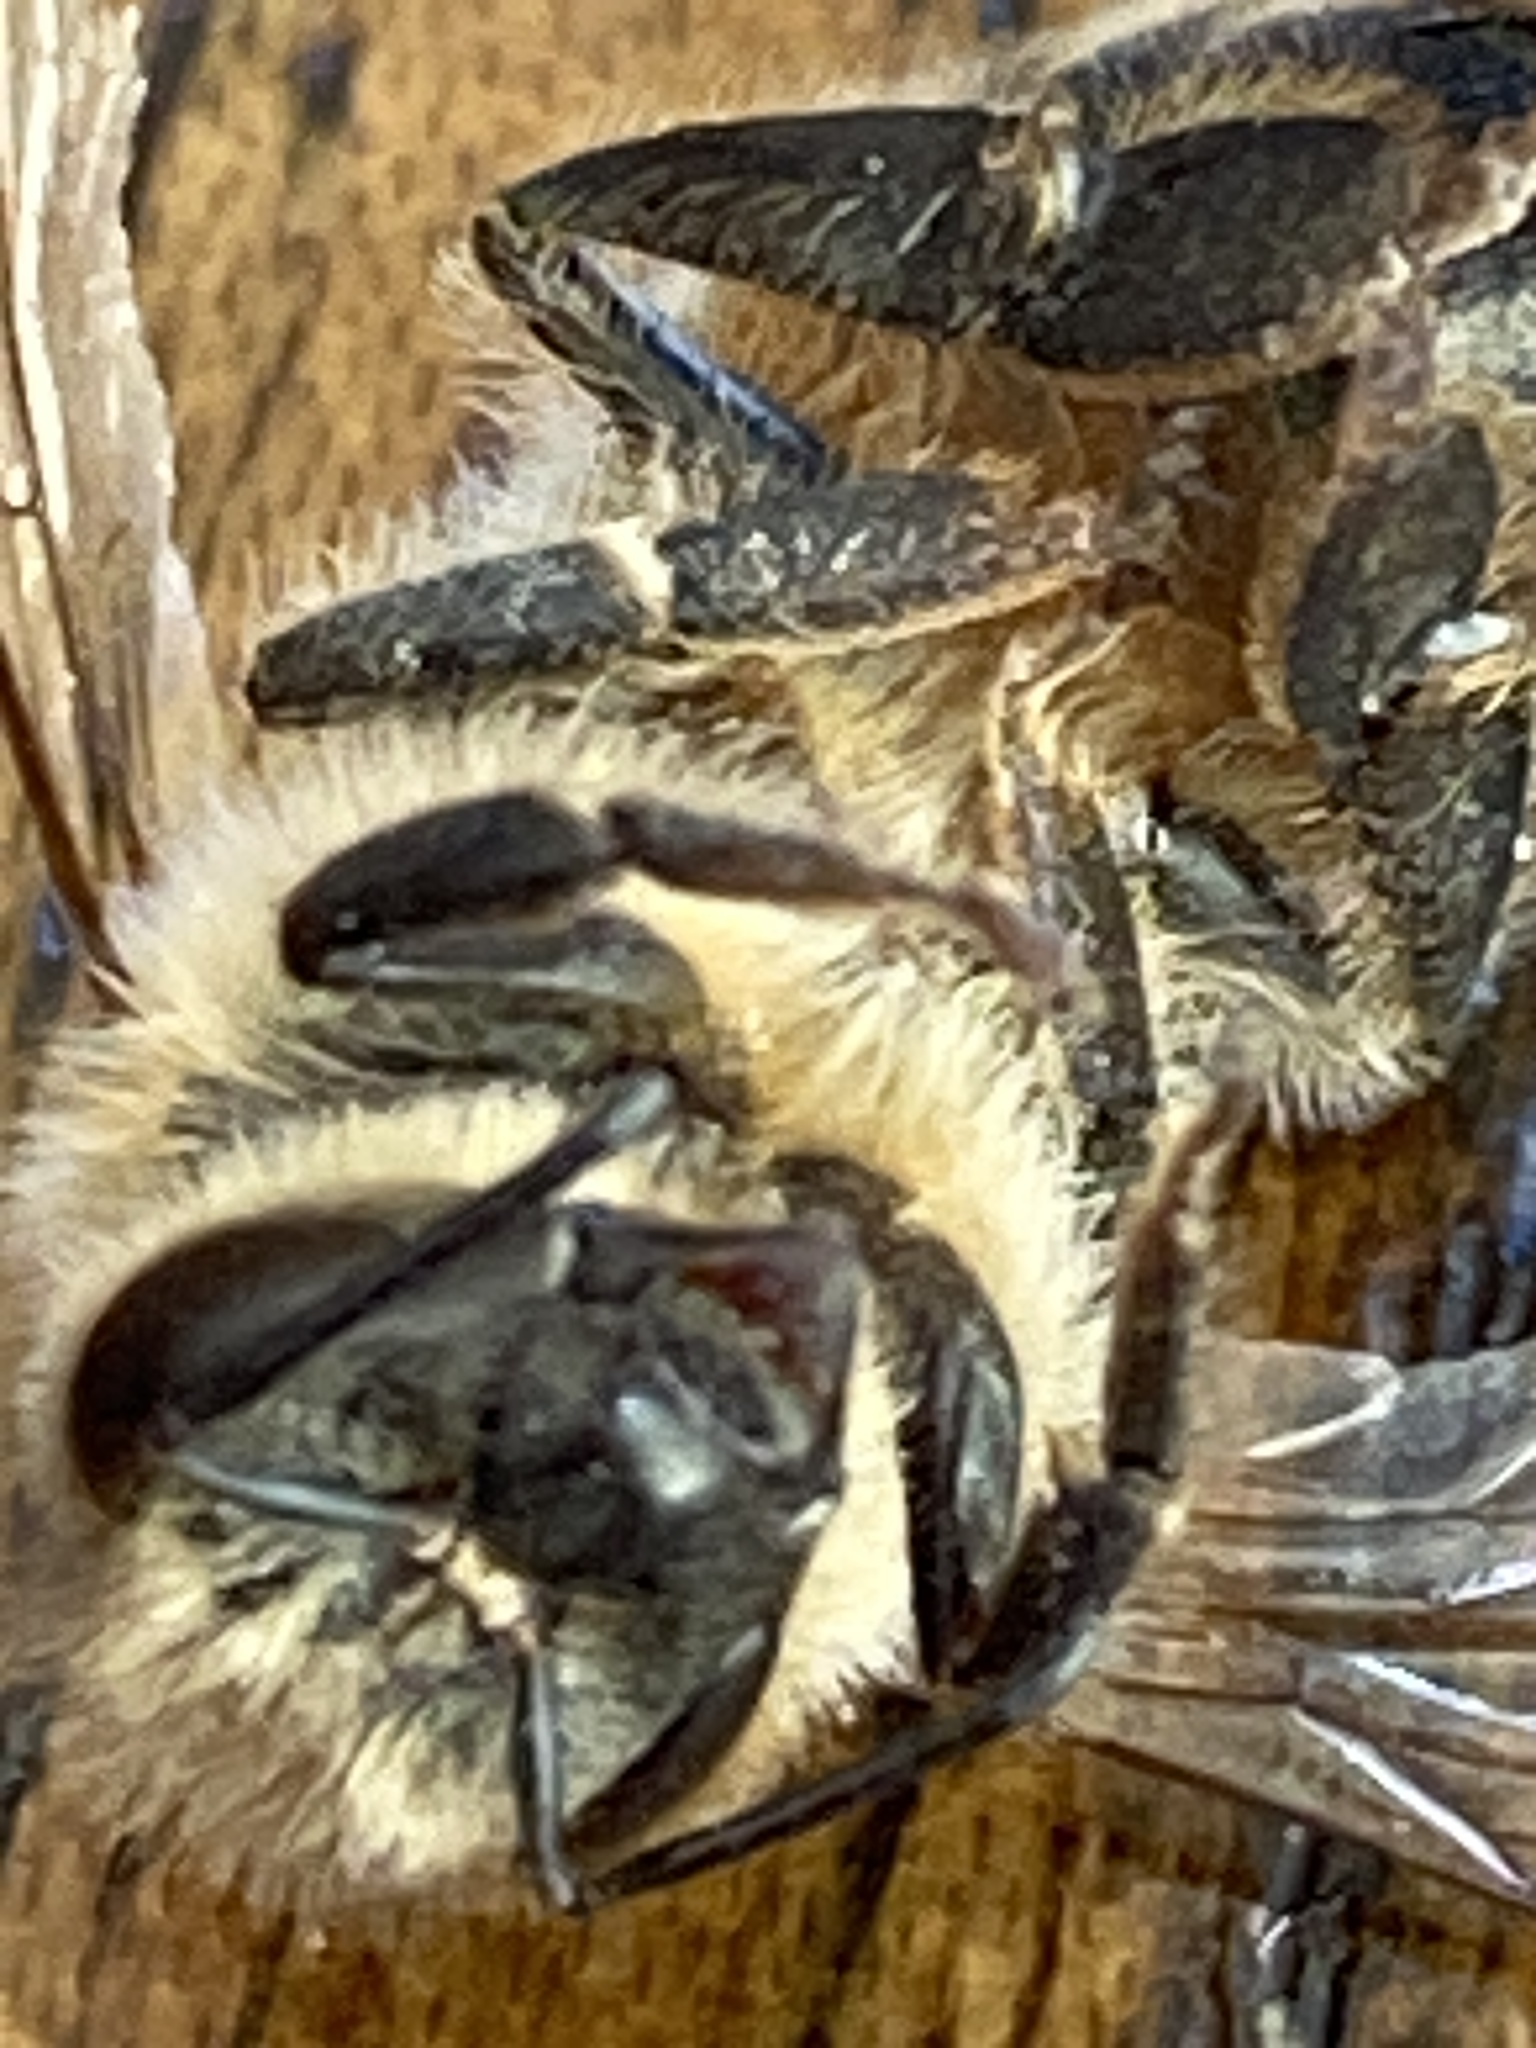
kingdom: Animalia
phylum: Arthropoda
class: Insecta
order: Hymenoptera
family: Apidae
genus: Apis
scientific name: Apis mellifera
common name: Honey bee
